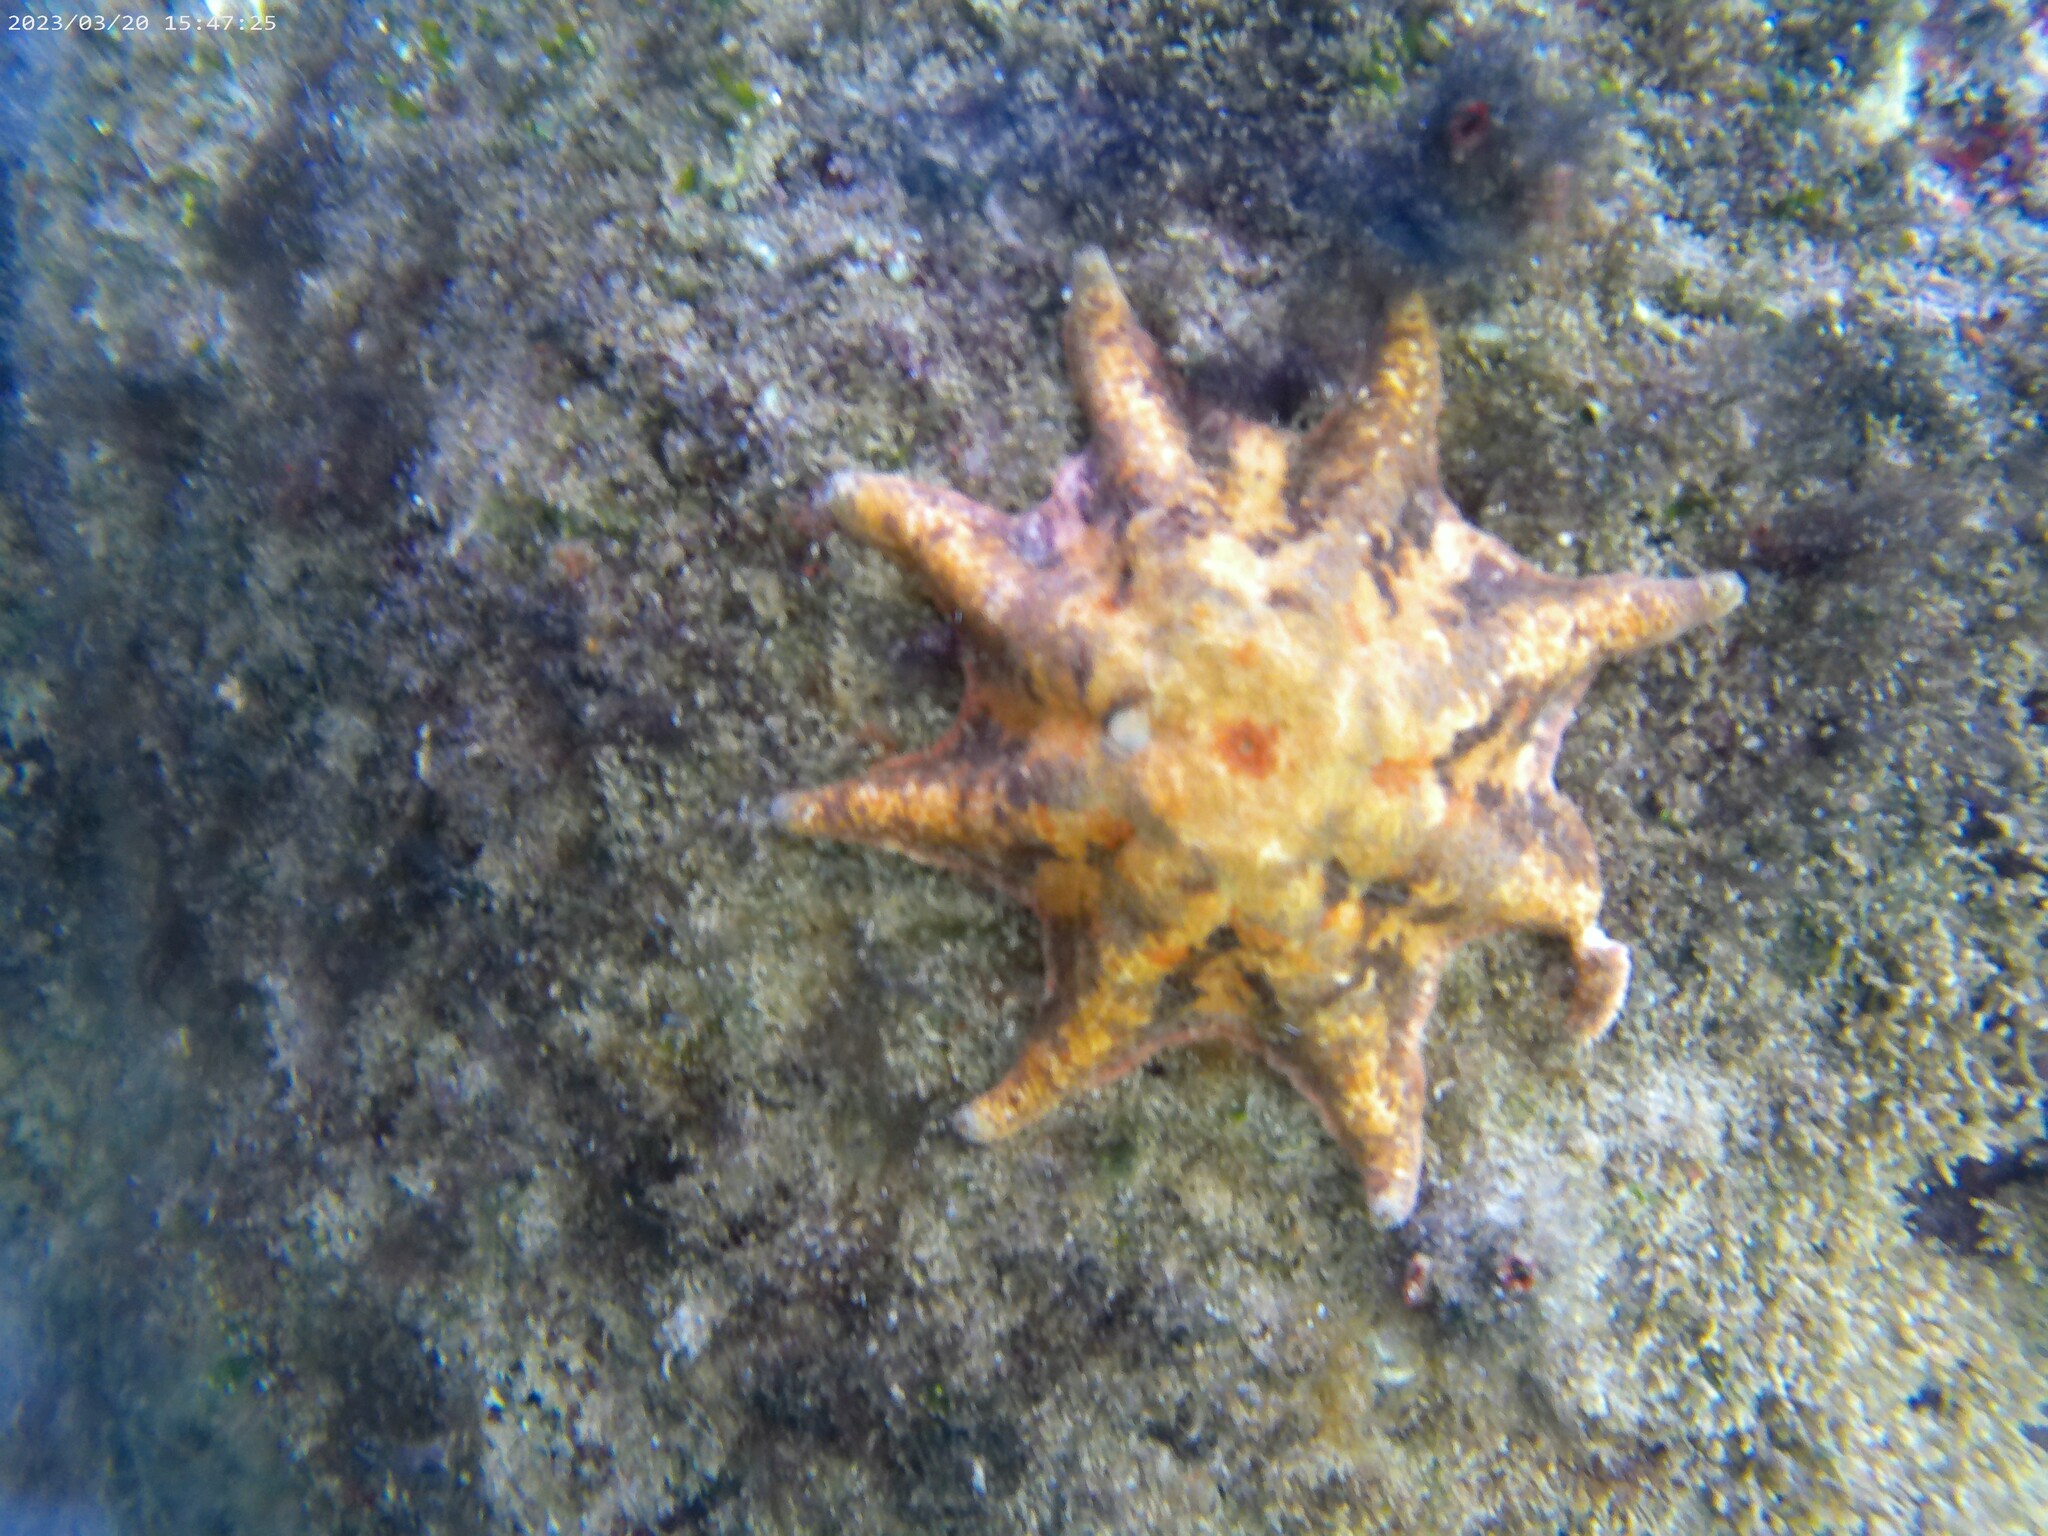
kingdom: Animalia
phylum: Echinodermata
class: Asteroidea
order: Valvatida
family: Asterinidae
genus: Meridiastra
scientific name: Meridiastra calcar
